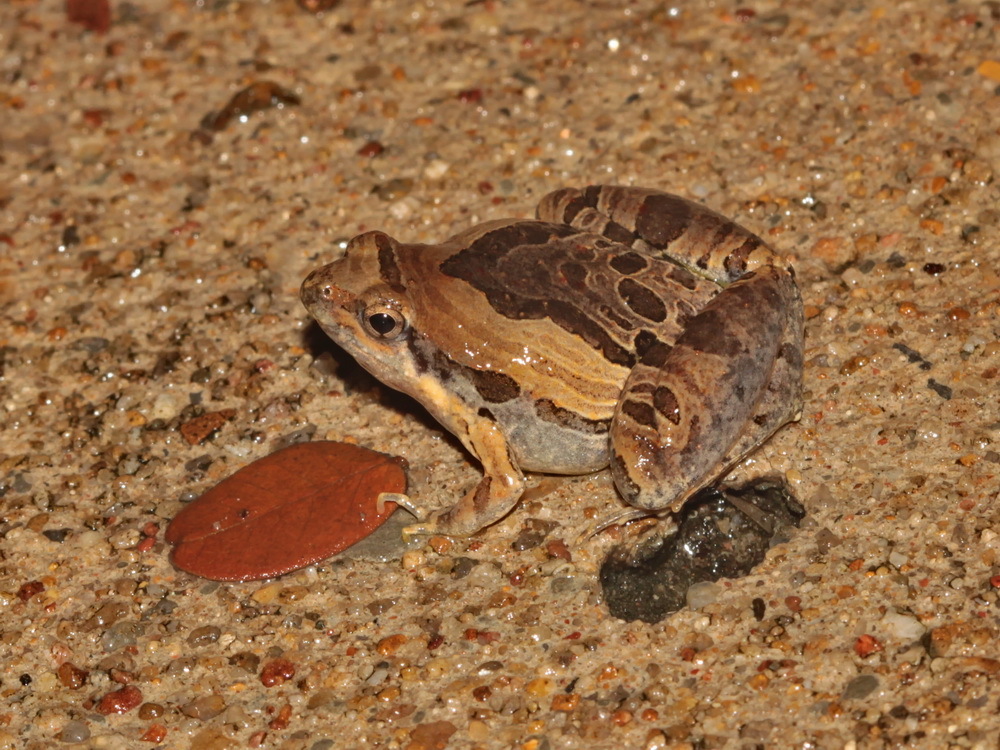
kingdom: Animalia
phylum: Chordata
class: Amphibia
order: Anura
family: Microhylidae
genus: Microhyla
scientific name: Microhyla pulchra
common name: Beautiful pygmy frog
